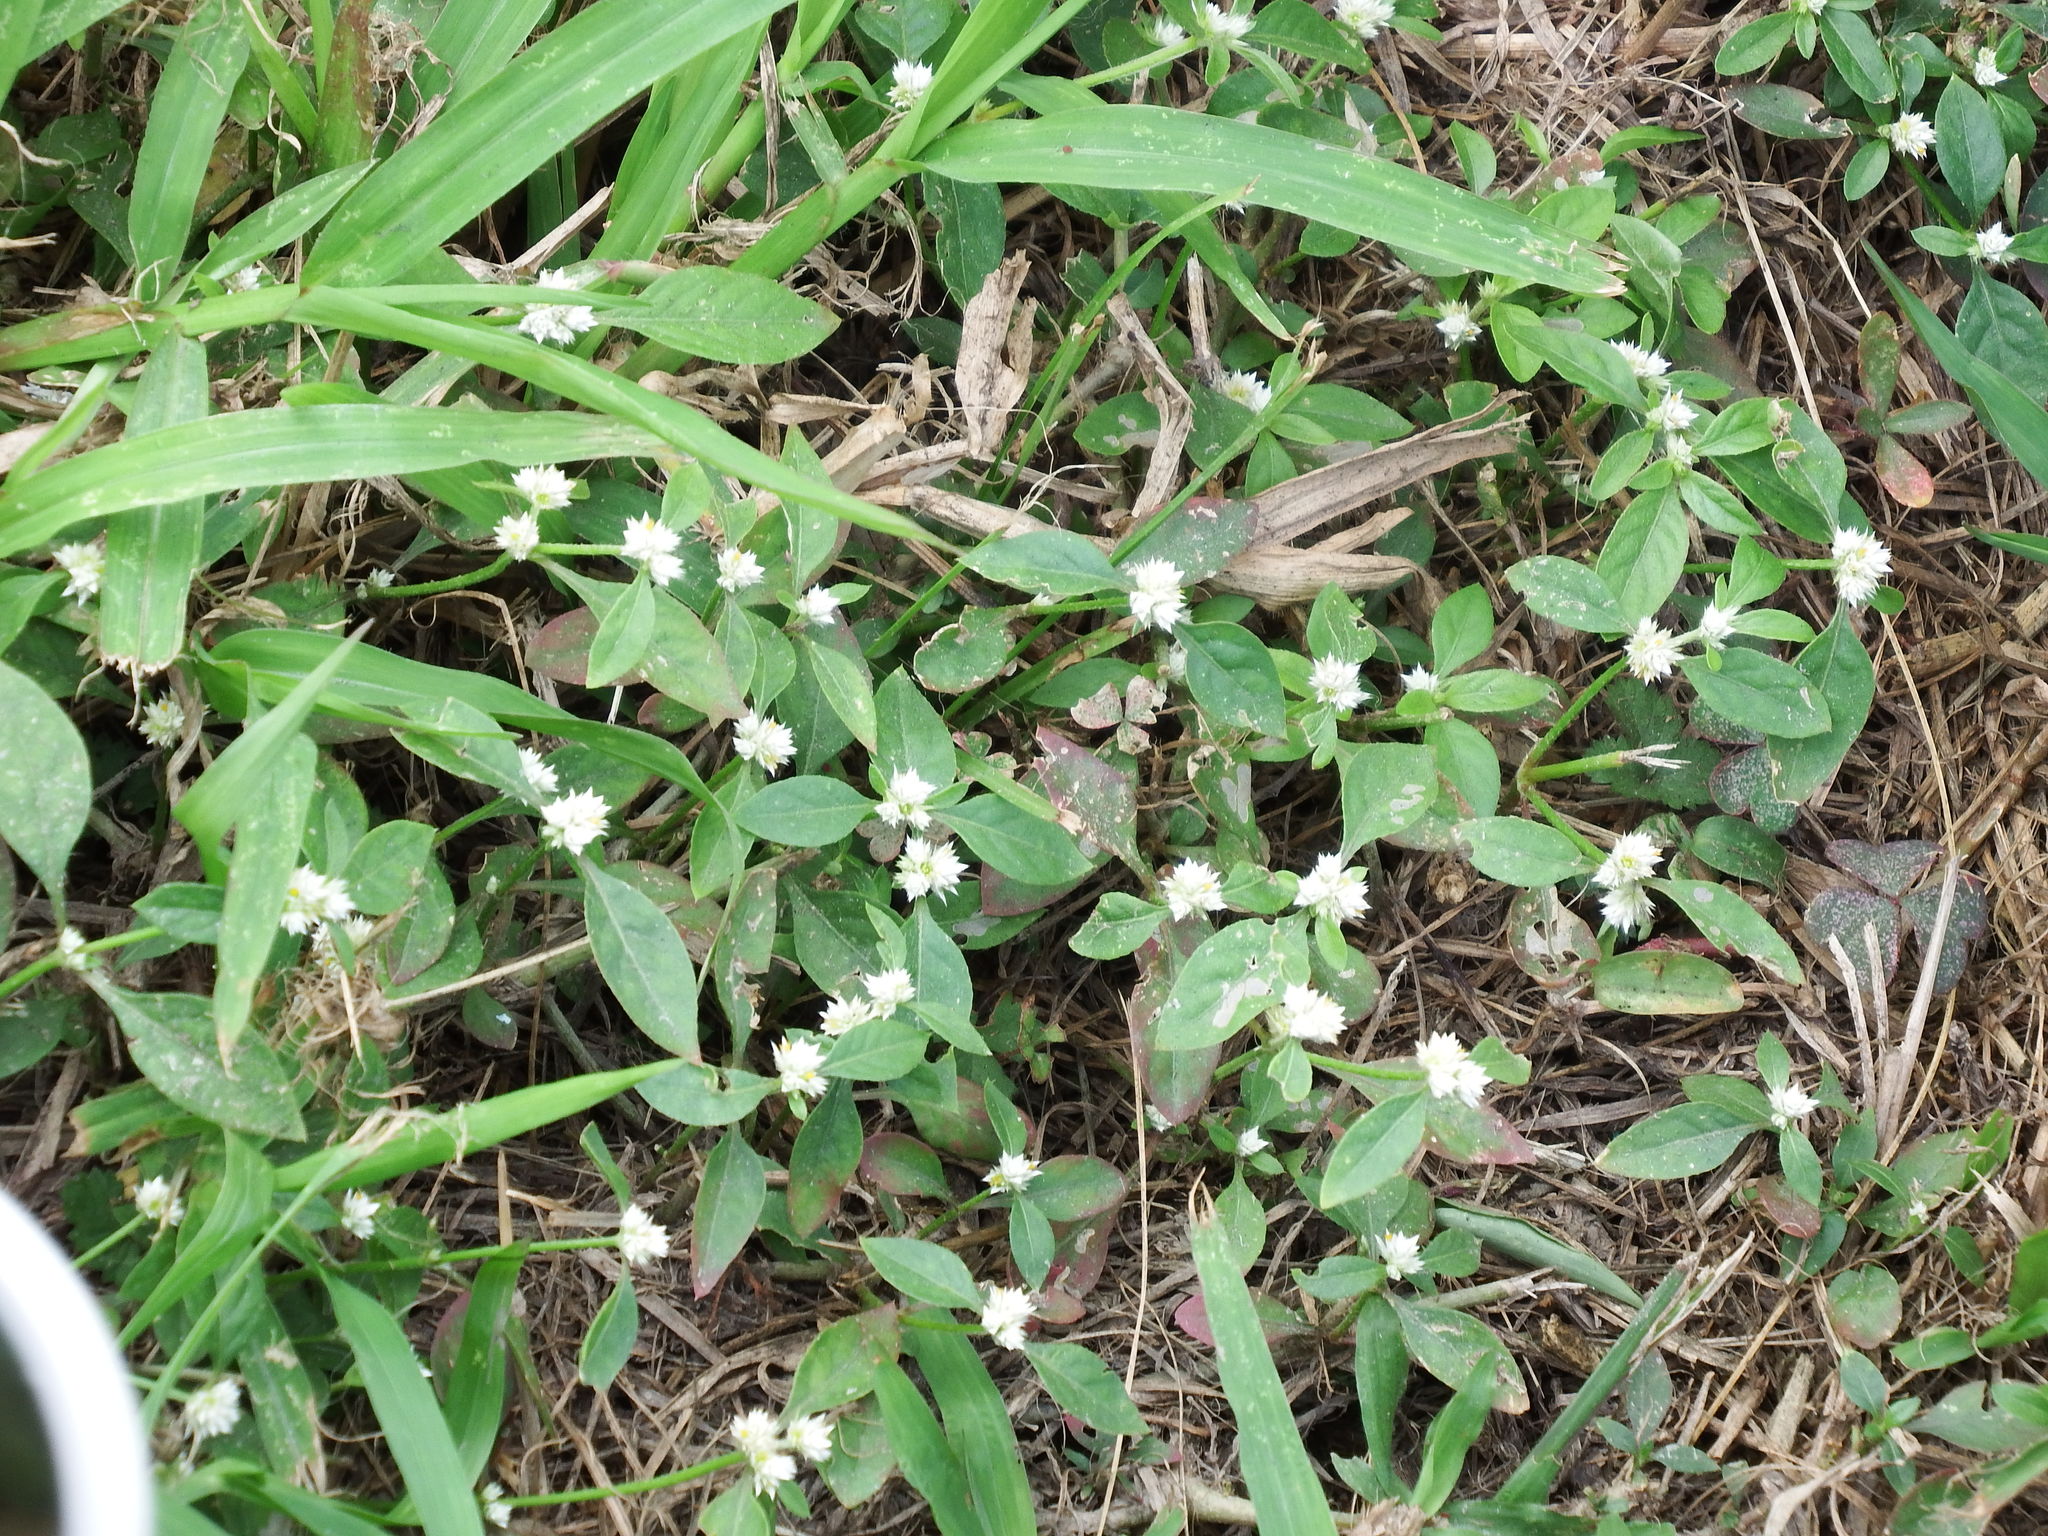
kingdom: Plantae
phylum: Tracheophyta
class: Magnoliopsida
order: Caryophyllales
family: Amaranthaceae
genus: Alternanthera
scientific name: Alternanthera bettzickiana
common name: Calico-plant
